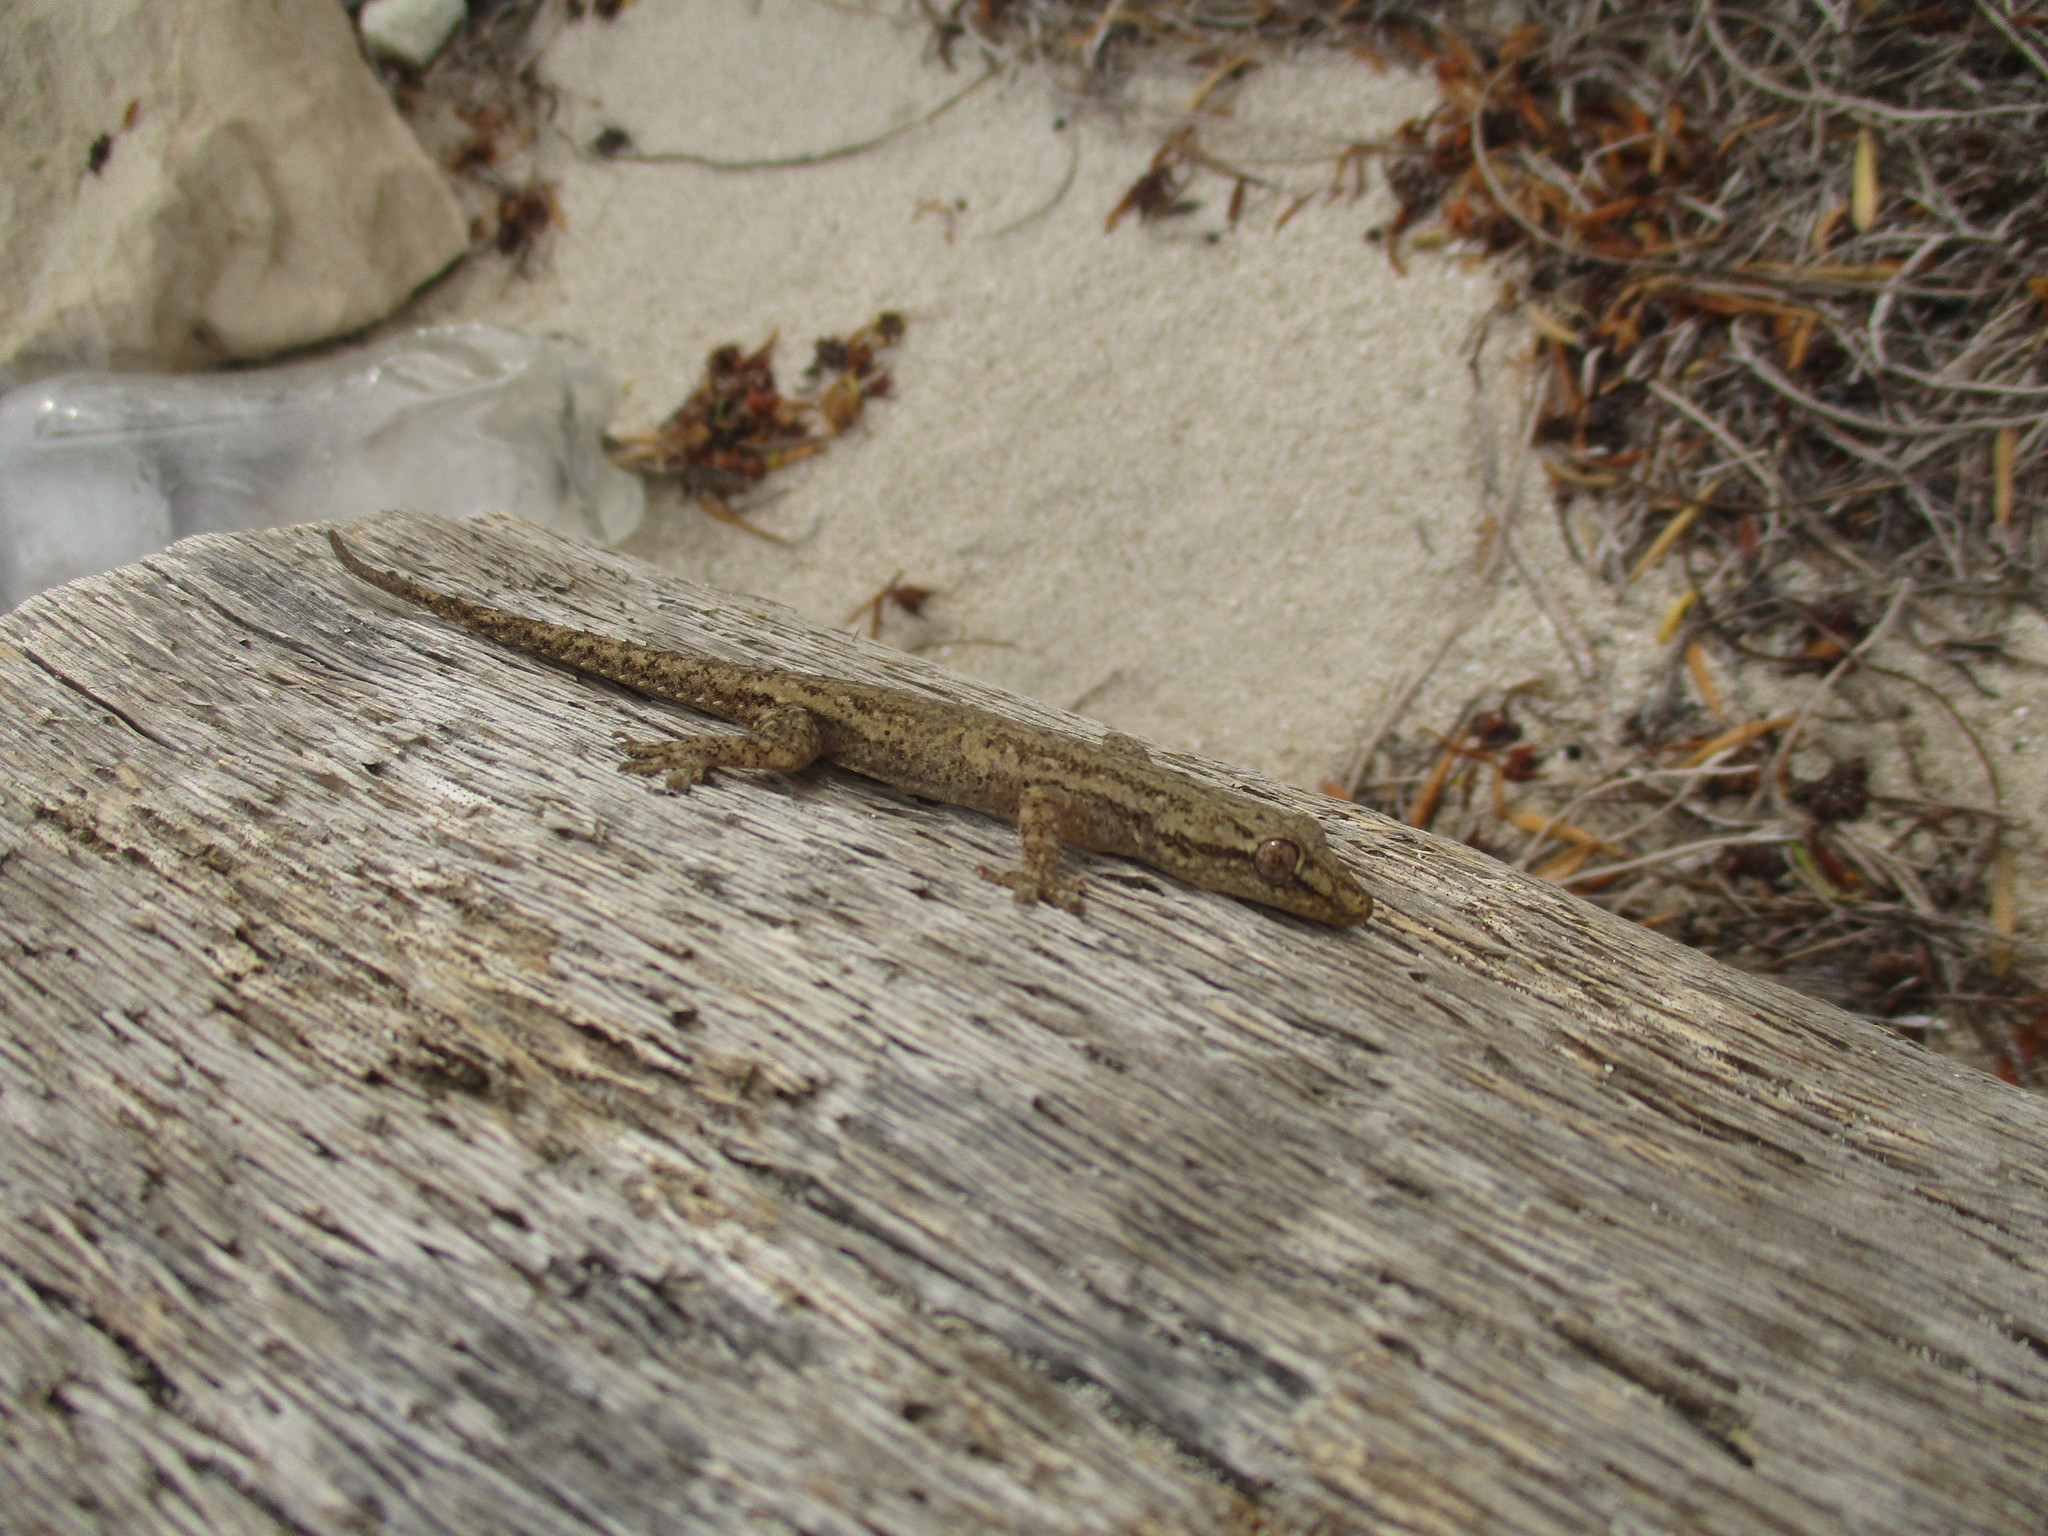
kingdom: Animalia
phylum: Chordata
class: Squamata
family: Gekkonidae
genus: Hemidactylus
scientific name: Hemidactylus frenatus
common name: Common house gecko
